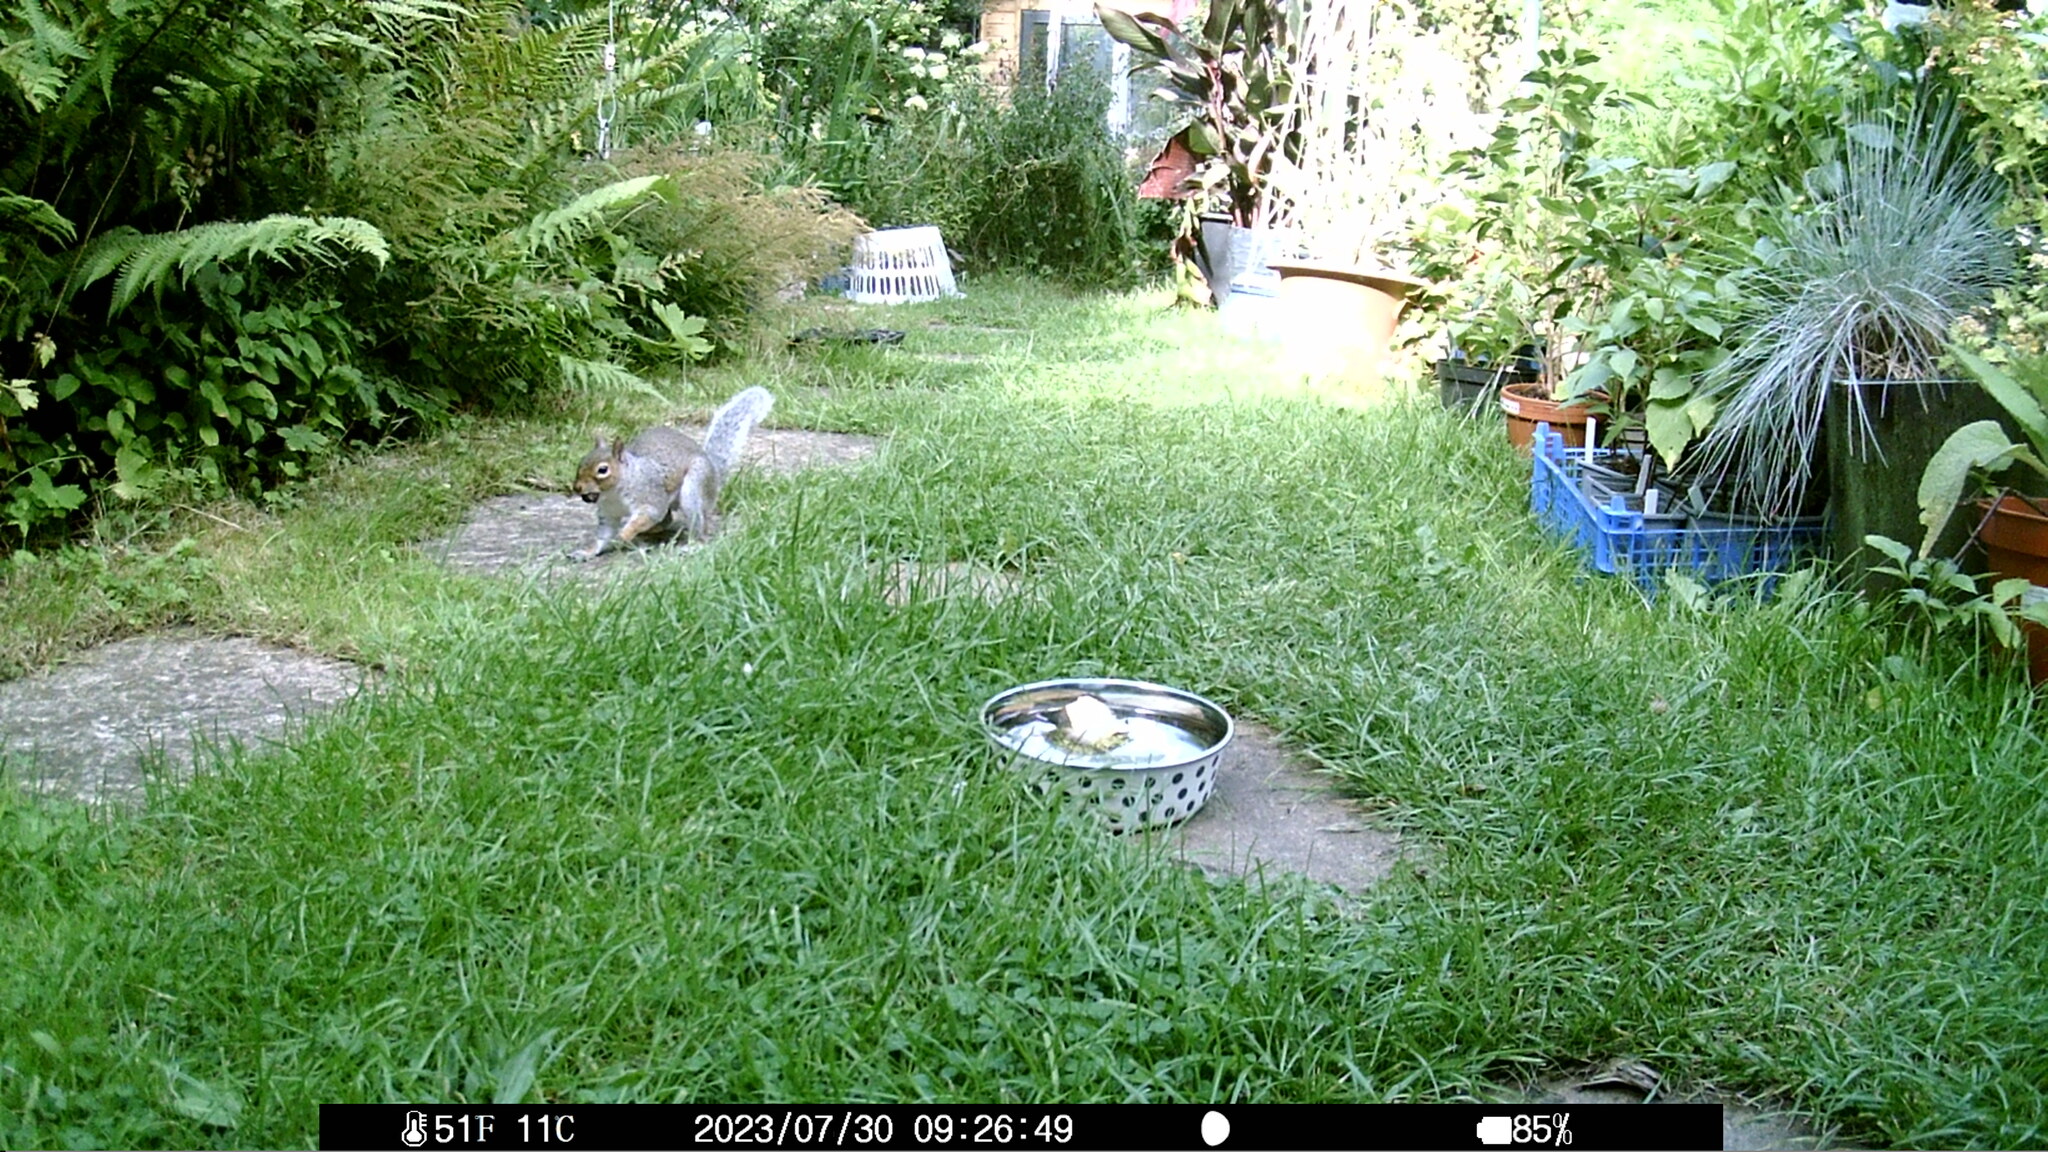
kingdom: Animalia
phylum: Chordata
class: Mammalia
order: Rodentia
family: Sciuridae
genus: Sciurus
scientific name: Sciurus carolinensis
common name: Eastern gray squirrel
